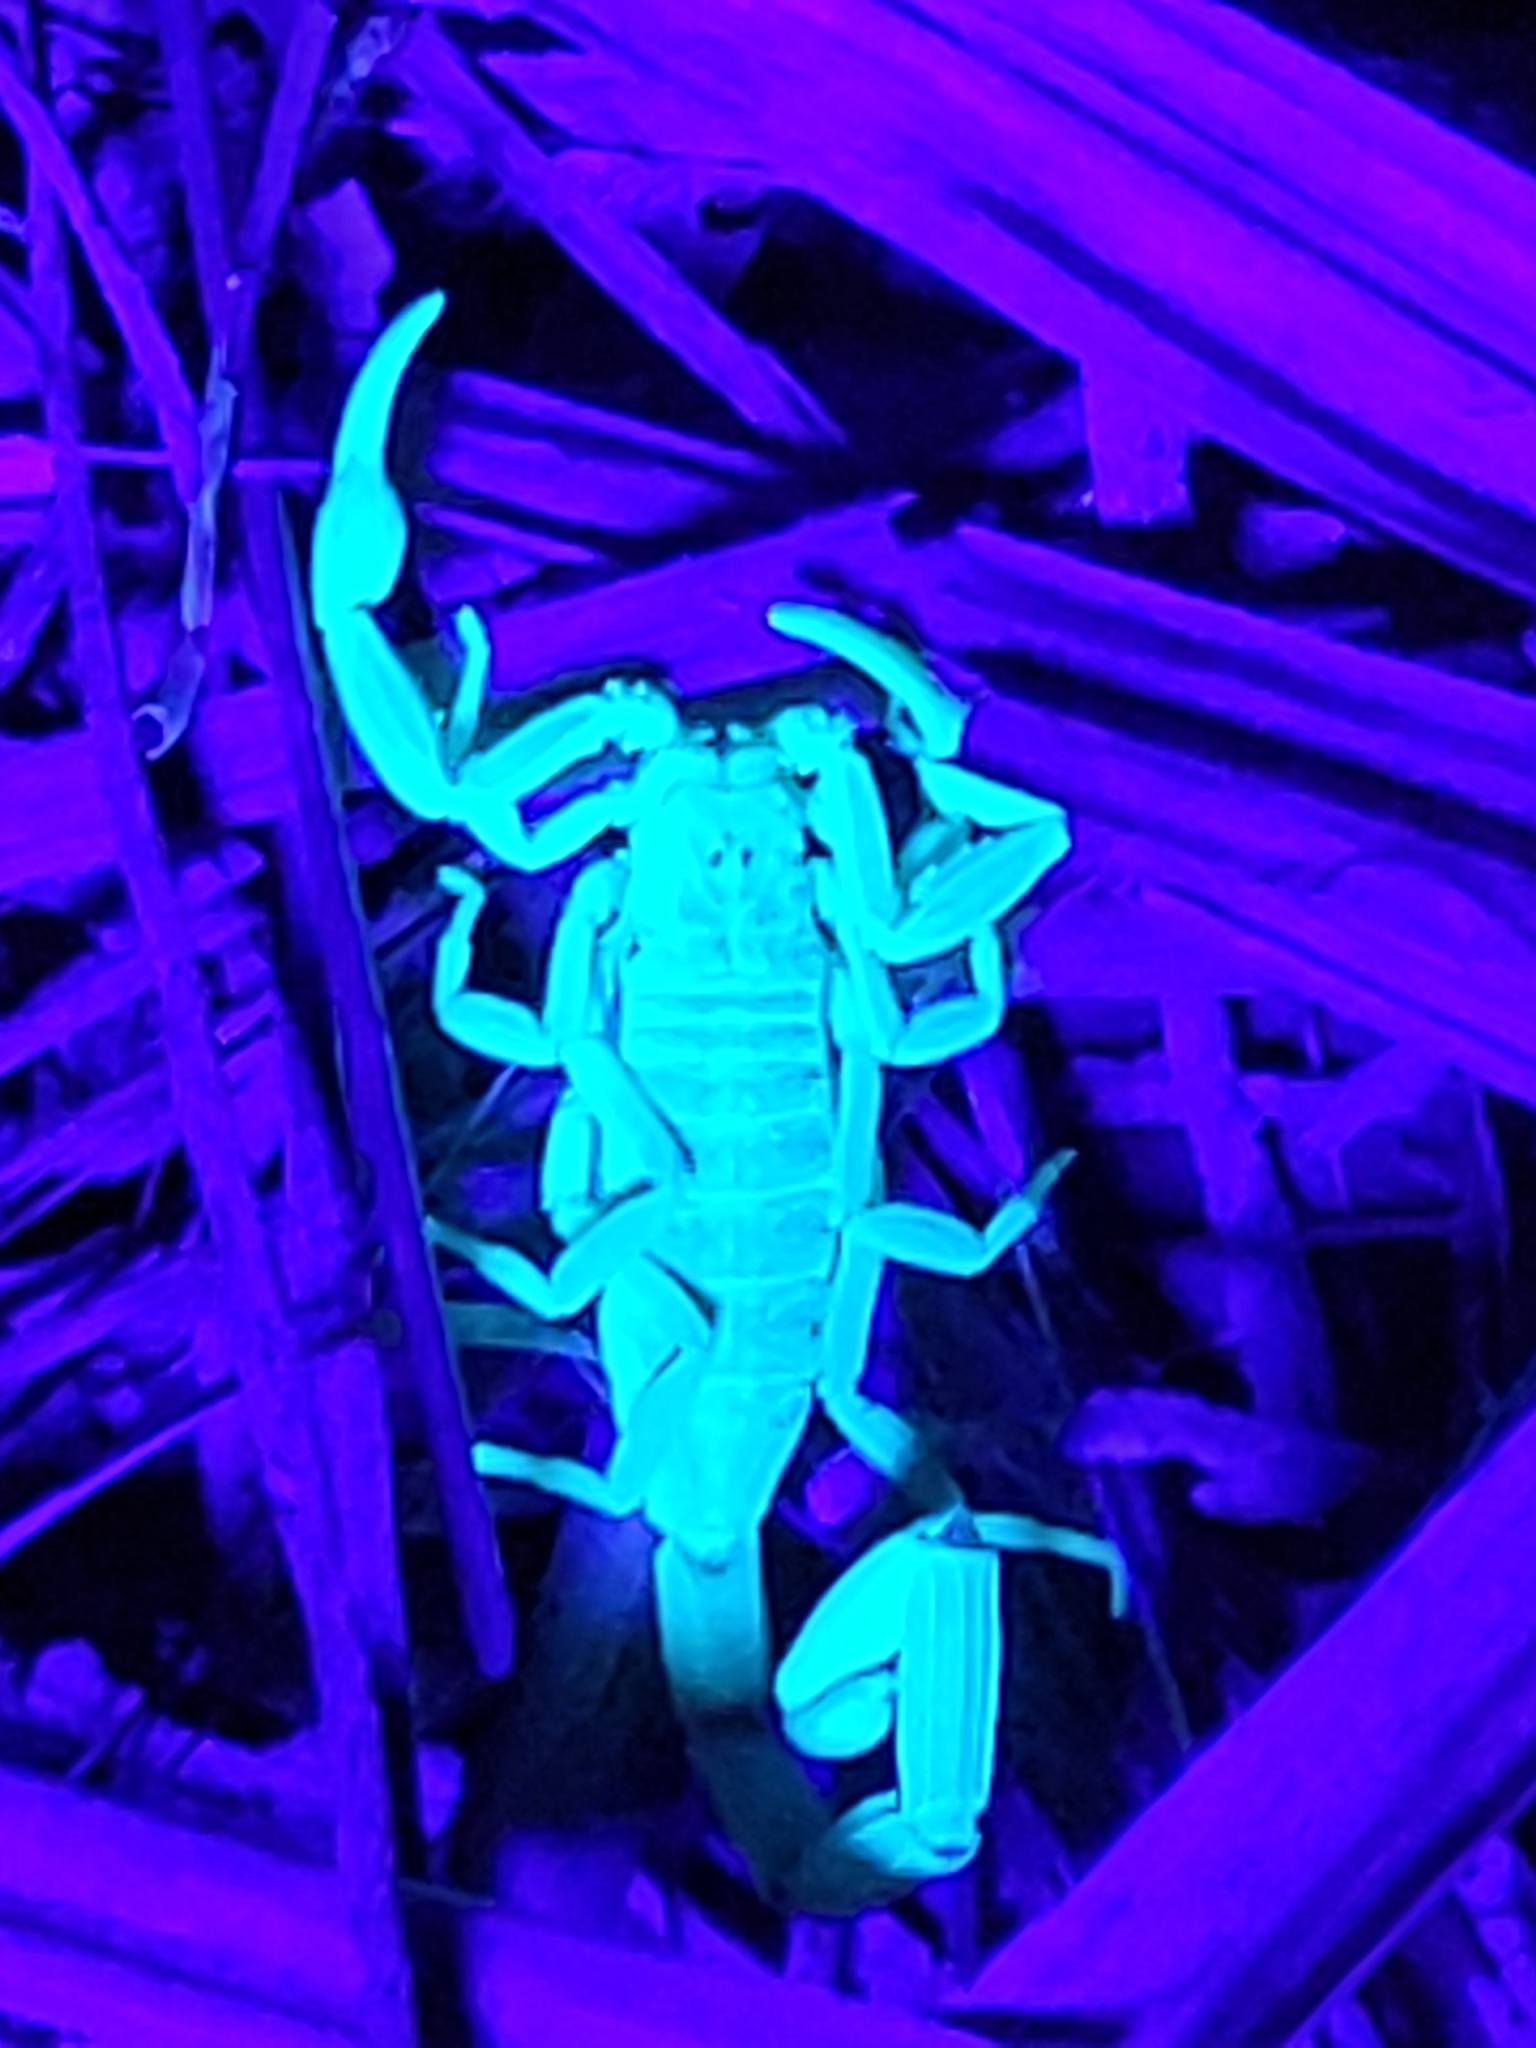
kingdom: Animalia
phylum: Arthropoda
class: Arachnida
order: Scorpiones
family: Buthidae
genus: Centruroides
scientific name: Centruroides vittatus
